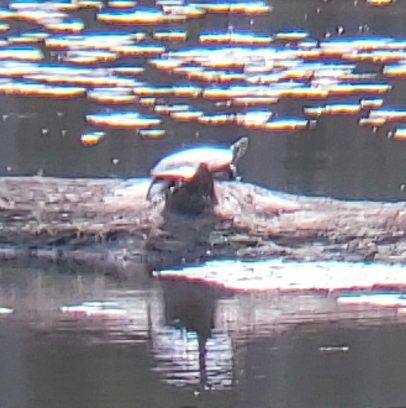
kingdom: Animalia
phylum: Chordata
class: Testudines
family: Emydidae
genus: Chrysemys
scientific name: Chrysemys picta
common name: Painted turtle
